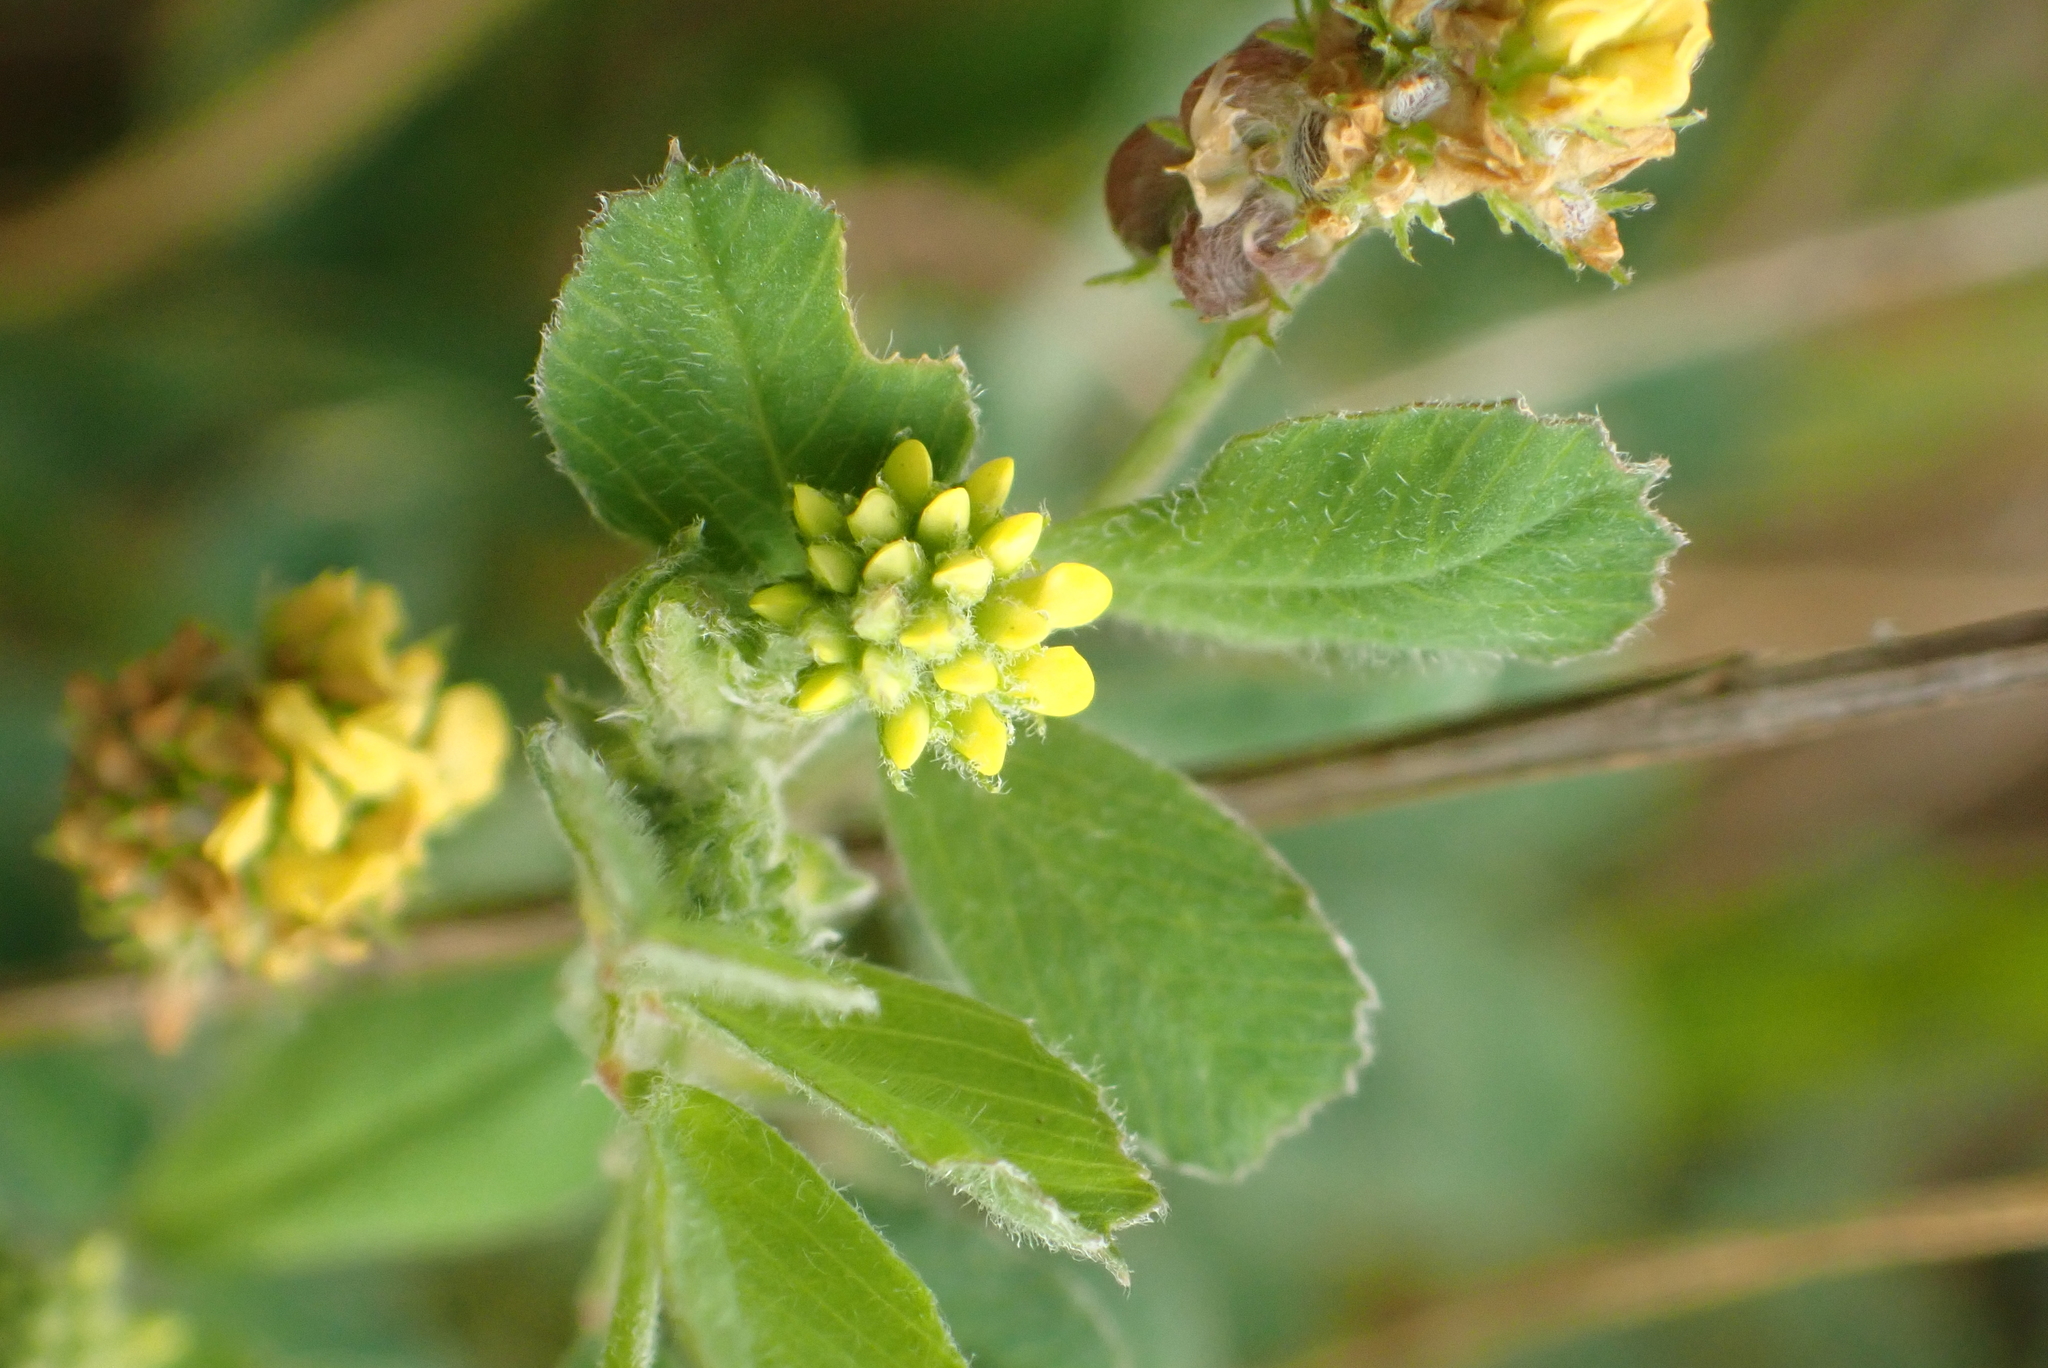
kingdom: Plantae
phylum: Tracheophyta
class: Magnoliopsida
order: Fabales
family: Fabaceae
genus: Medicago
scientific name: Medicago lupulina
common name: Black medick
